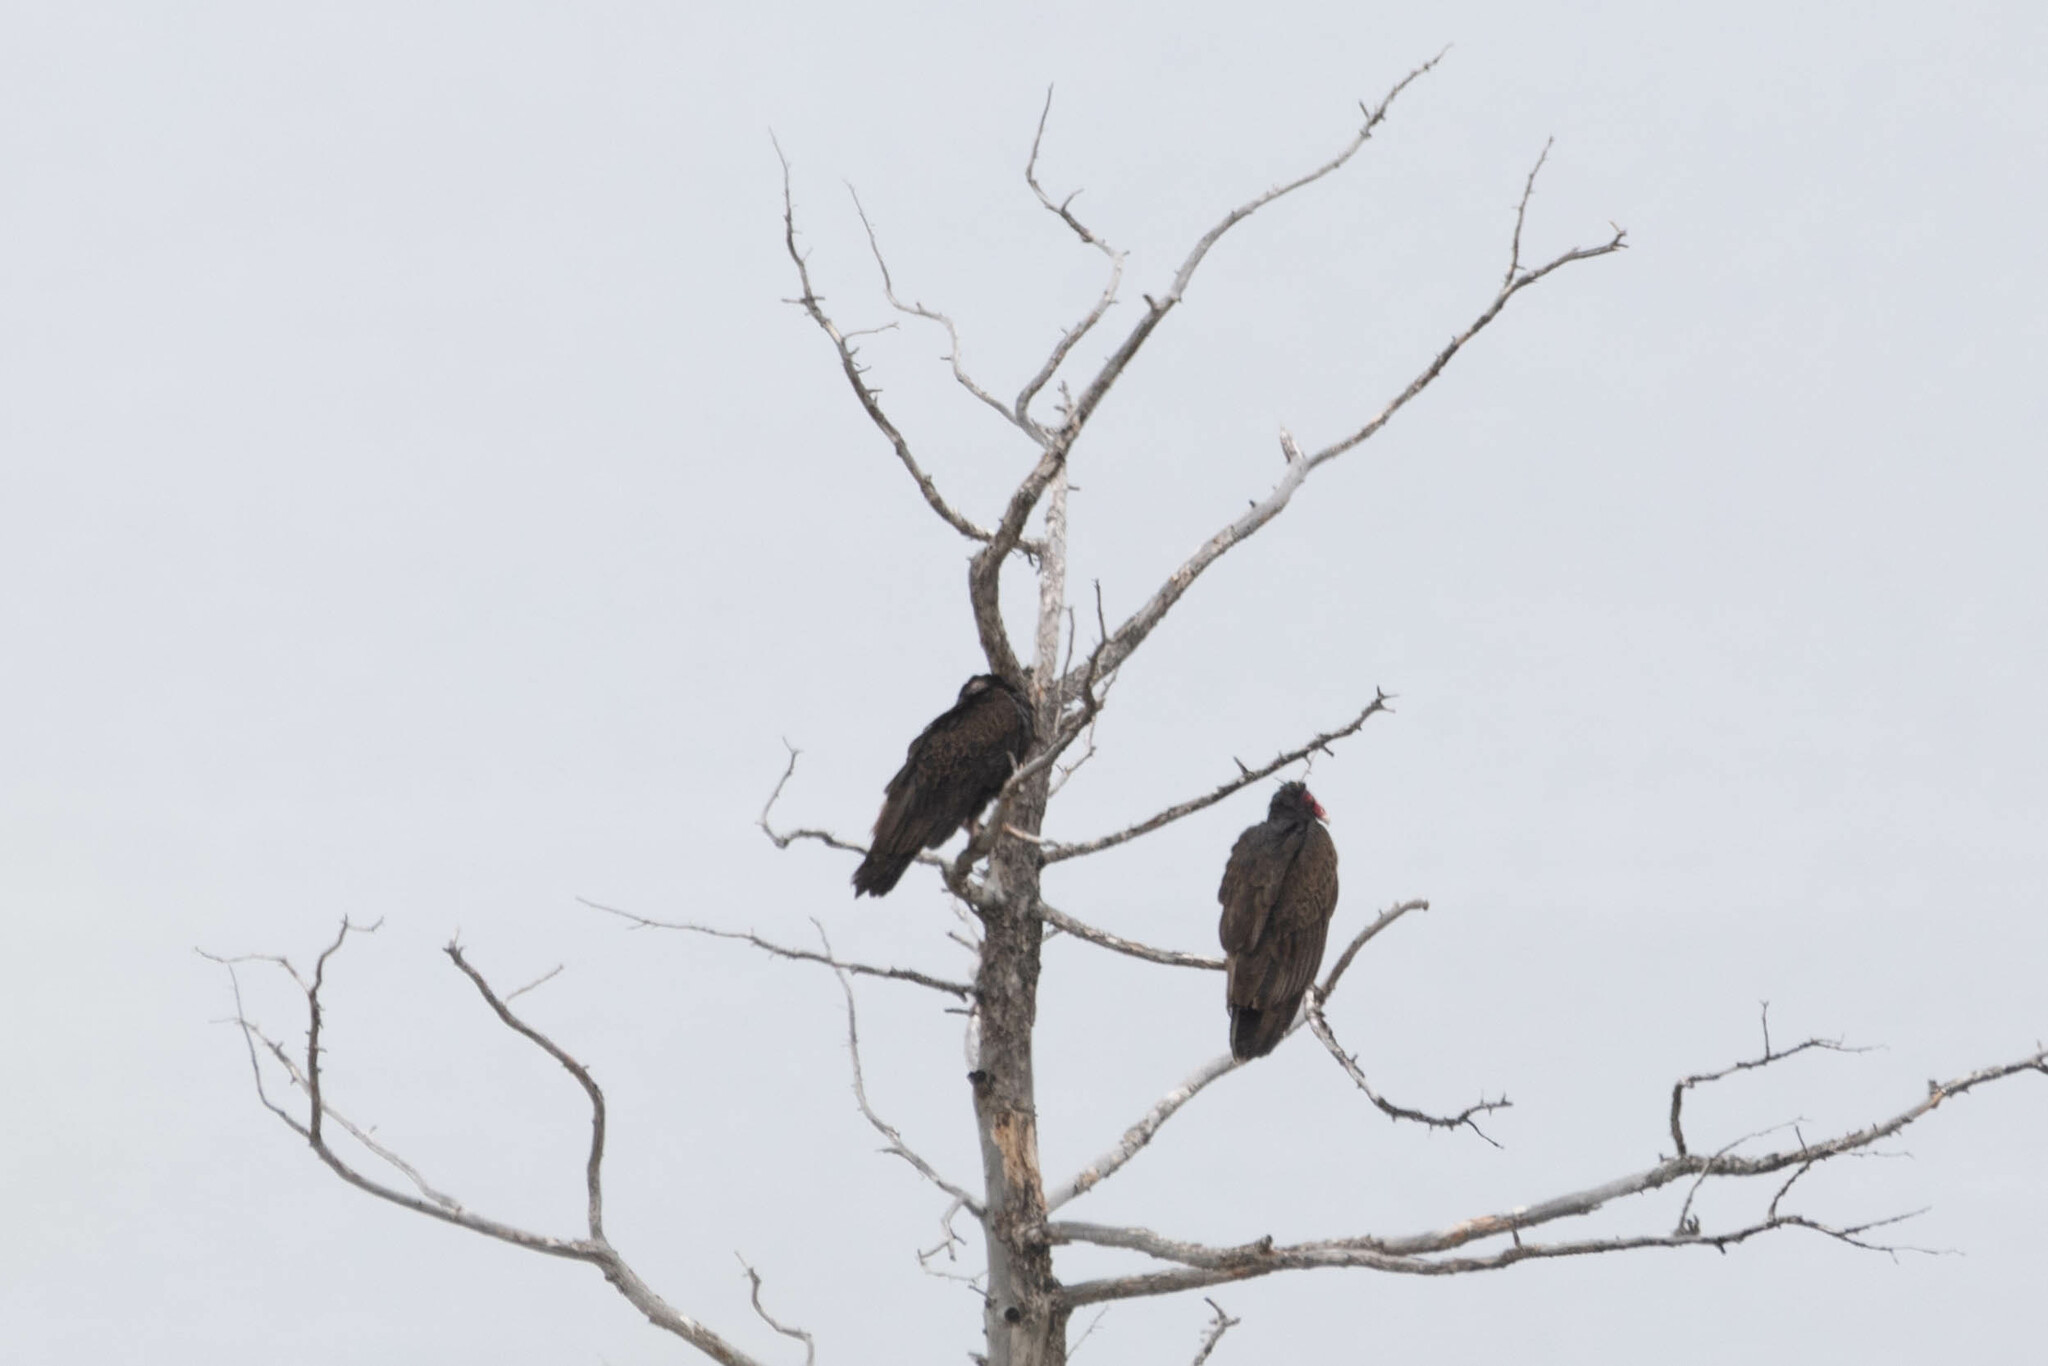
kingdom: Animalia
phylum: Chordata
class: Aves
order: Accipitriformes
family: Cathartidae
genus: Cathartes
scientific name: Cathartes aura
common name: Turkey vulture
